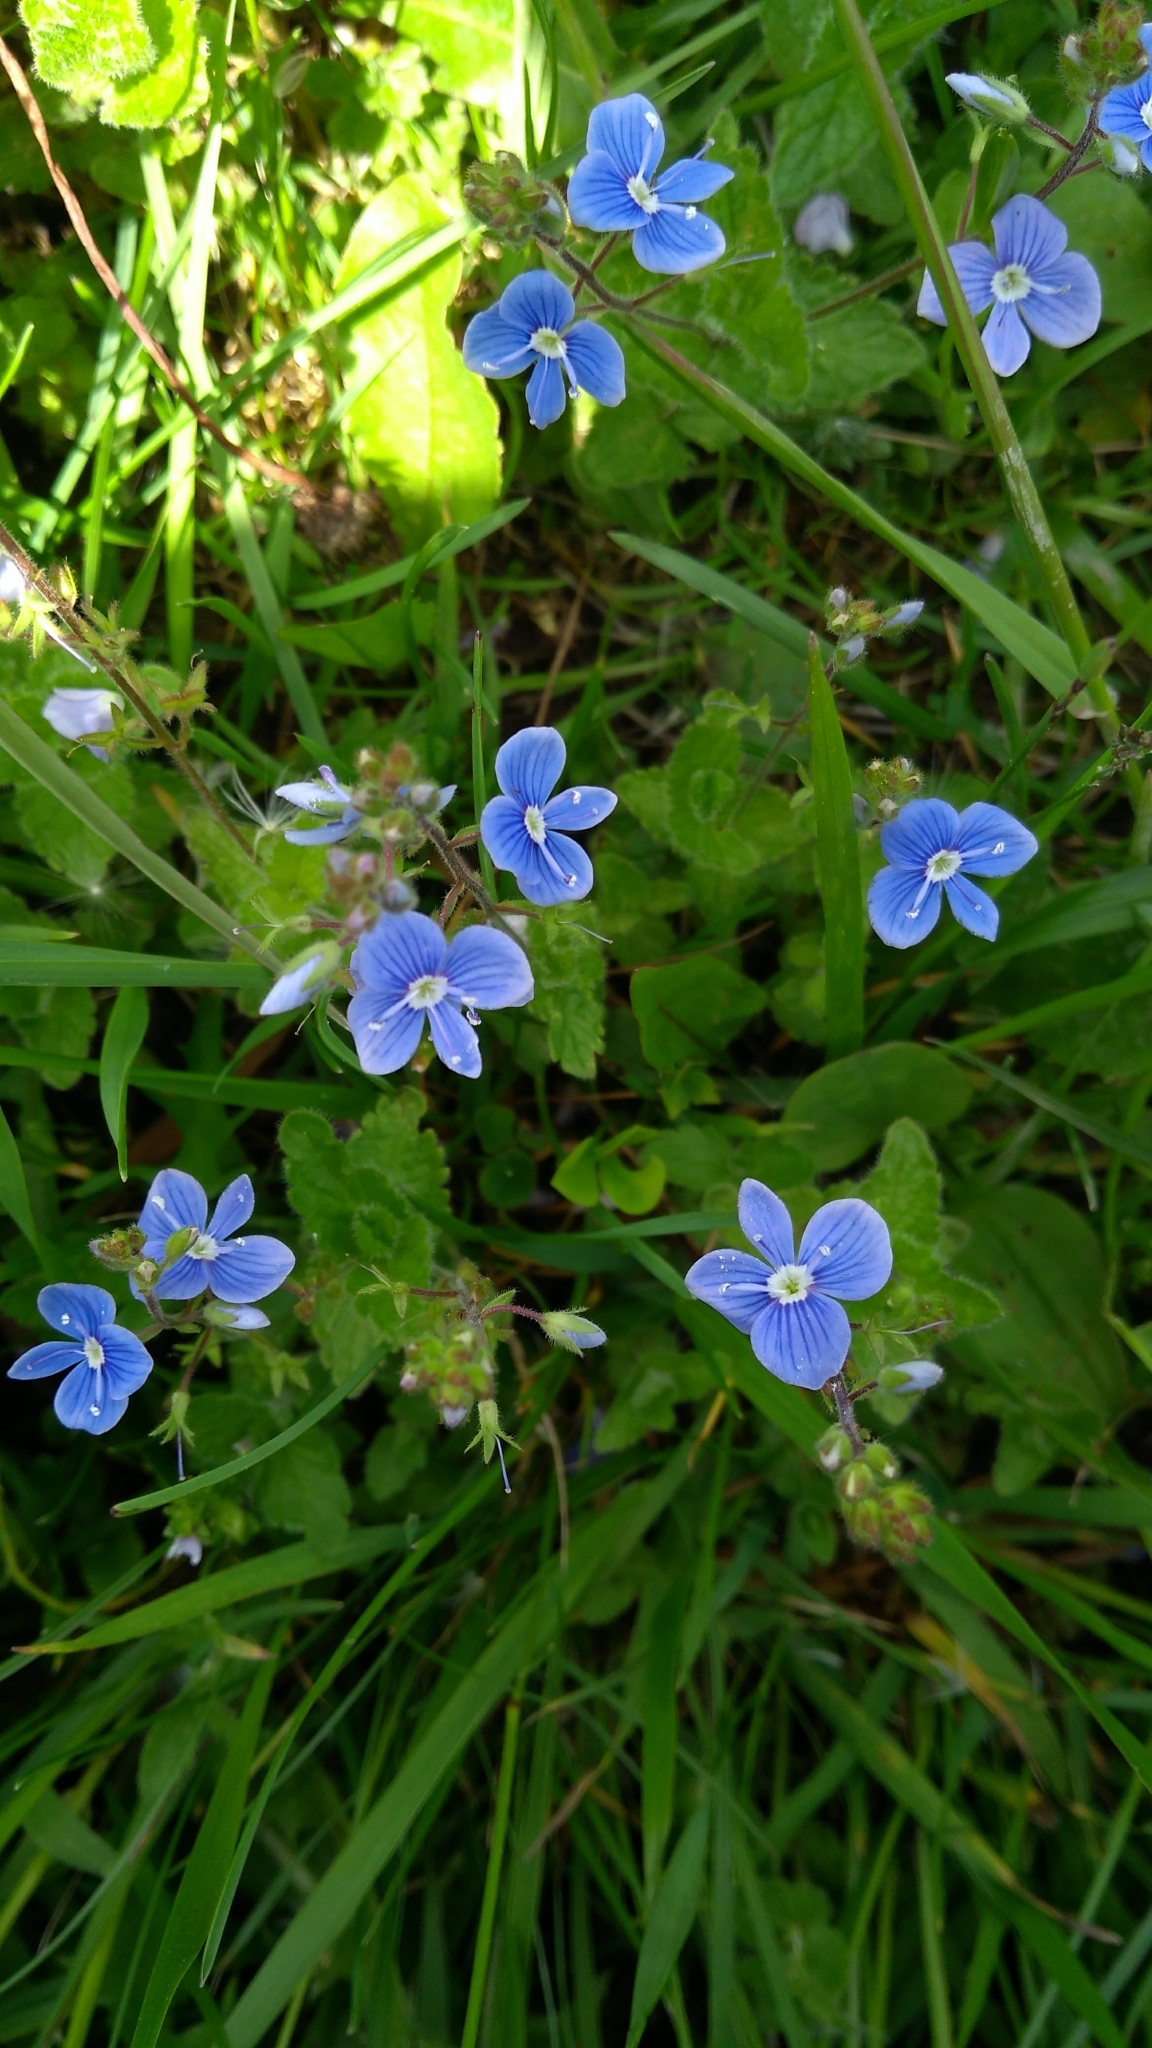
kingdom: Plantae
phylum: Tracheophyta
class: Magnoliopsida
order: Lamiales
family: Plantaginaceae
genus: Veronica
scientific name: Veronica chamaedrys
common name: Germander speedwell
